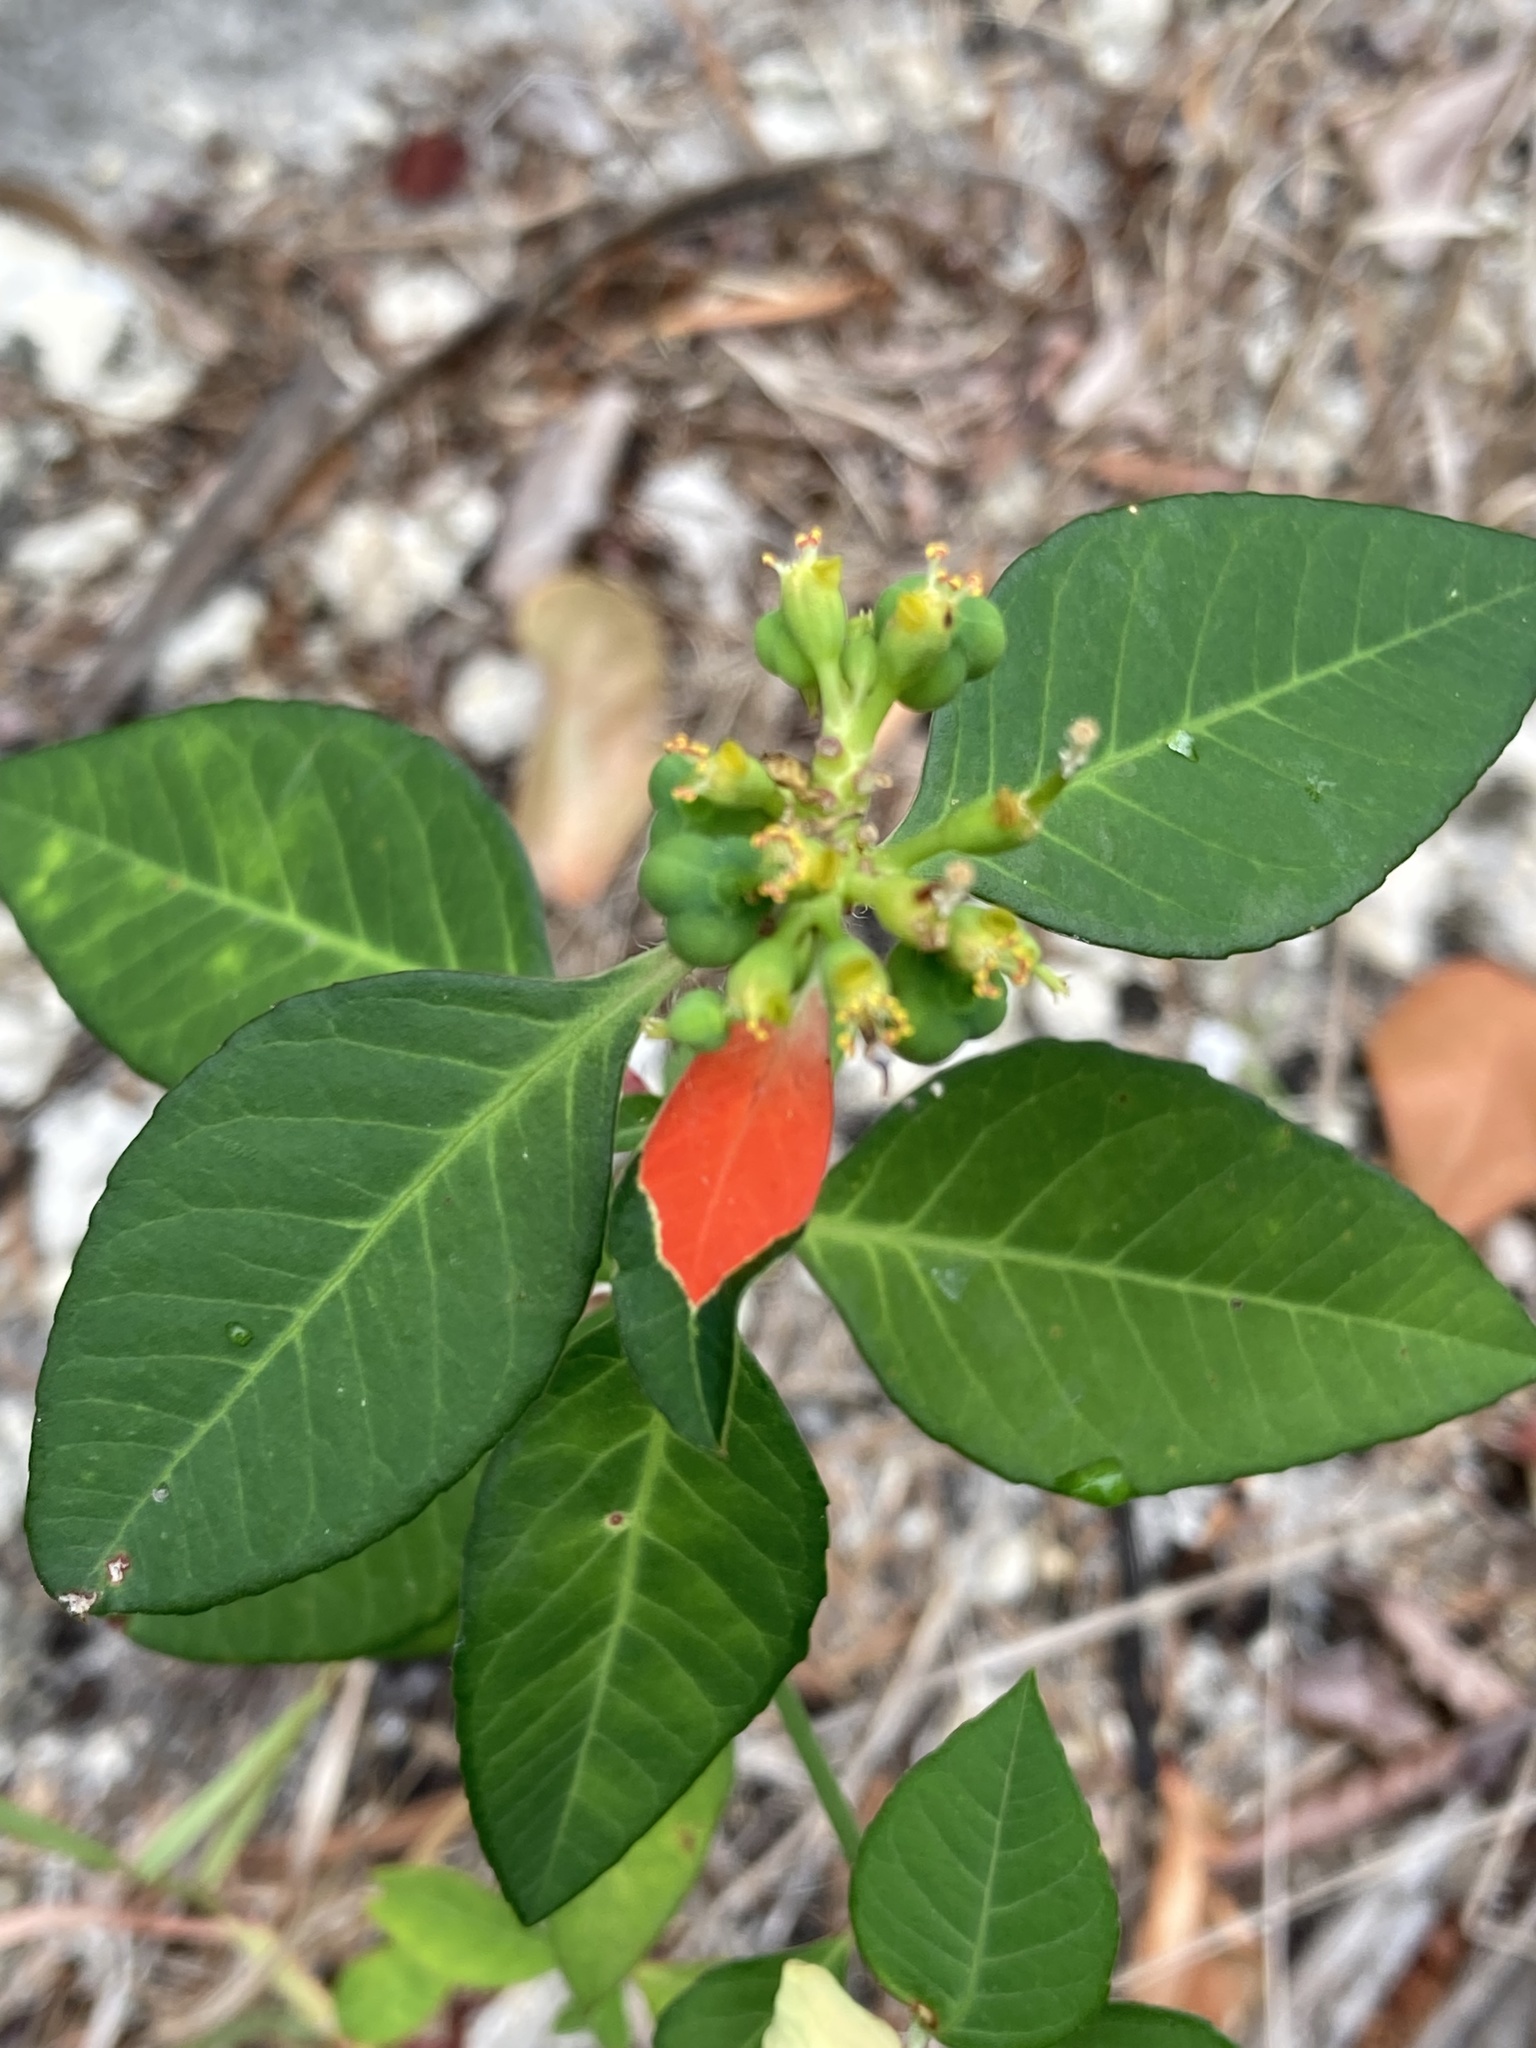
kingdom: Plantae
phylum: Tracheophyta
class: Magnoliopsida
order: Malpighiales
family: Euphorbiaceae
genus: Euphorbia
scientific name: Euphorbia heterophylla
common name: Mexican fireplant
